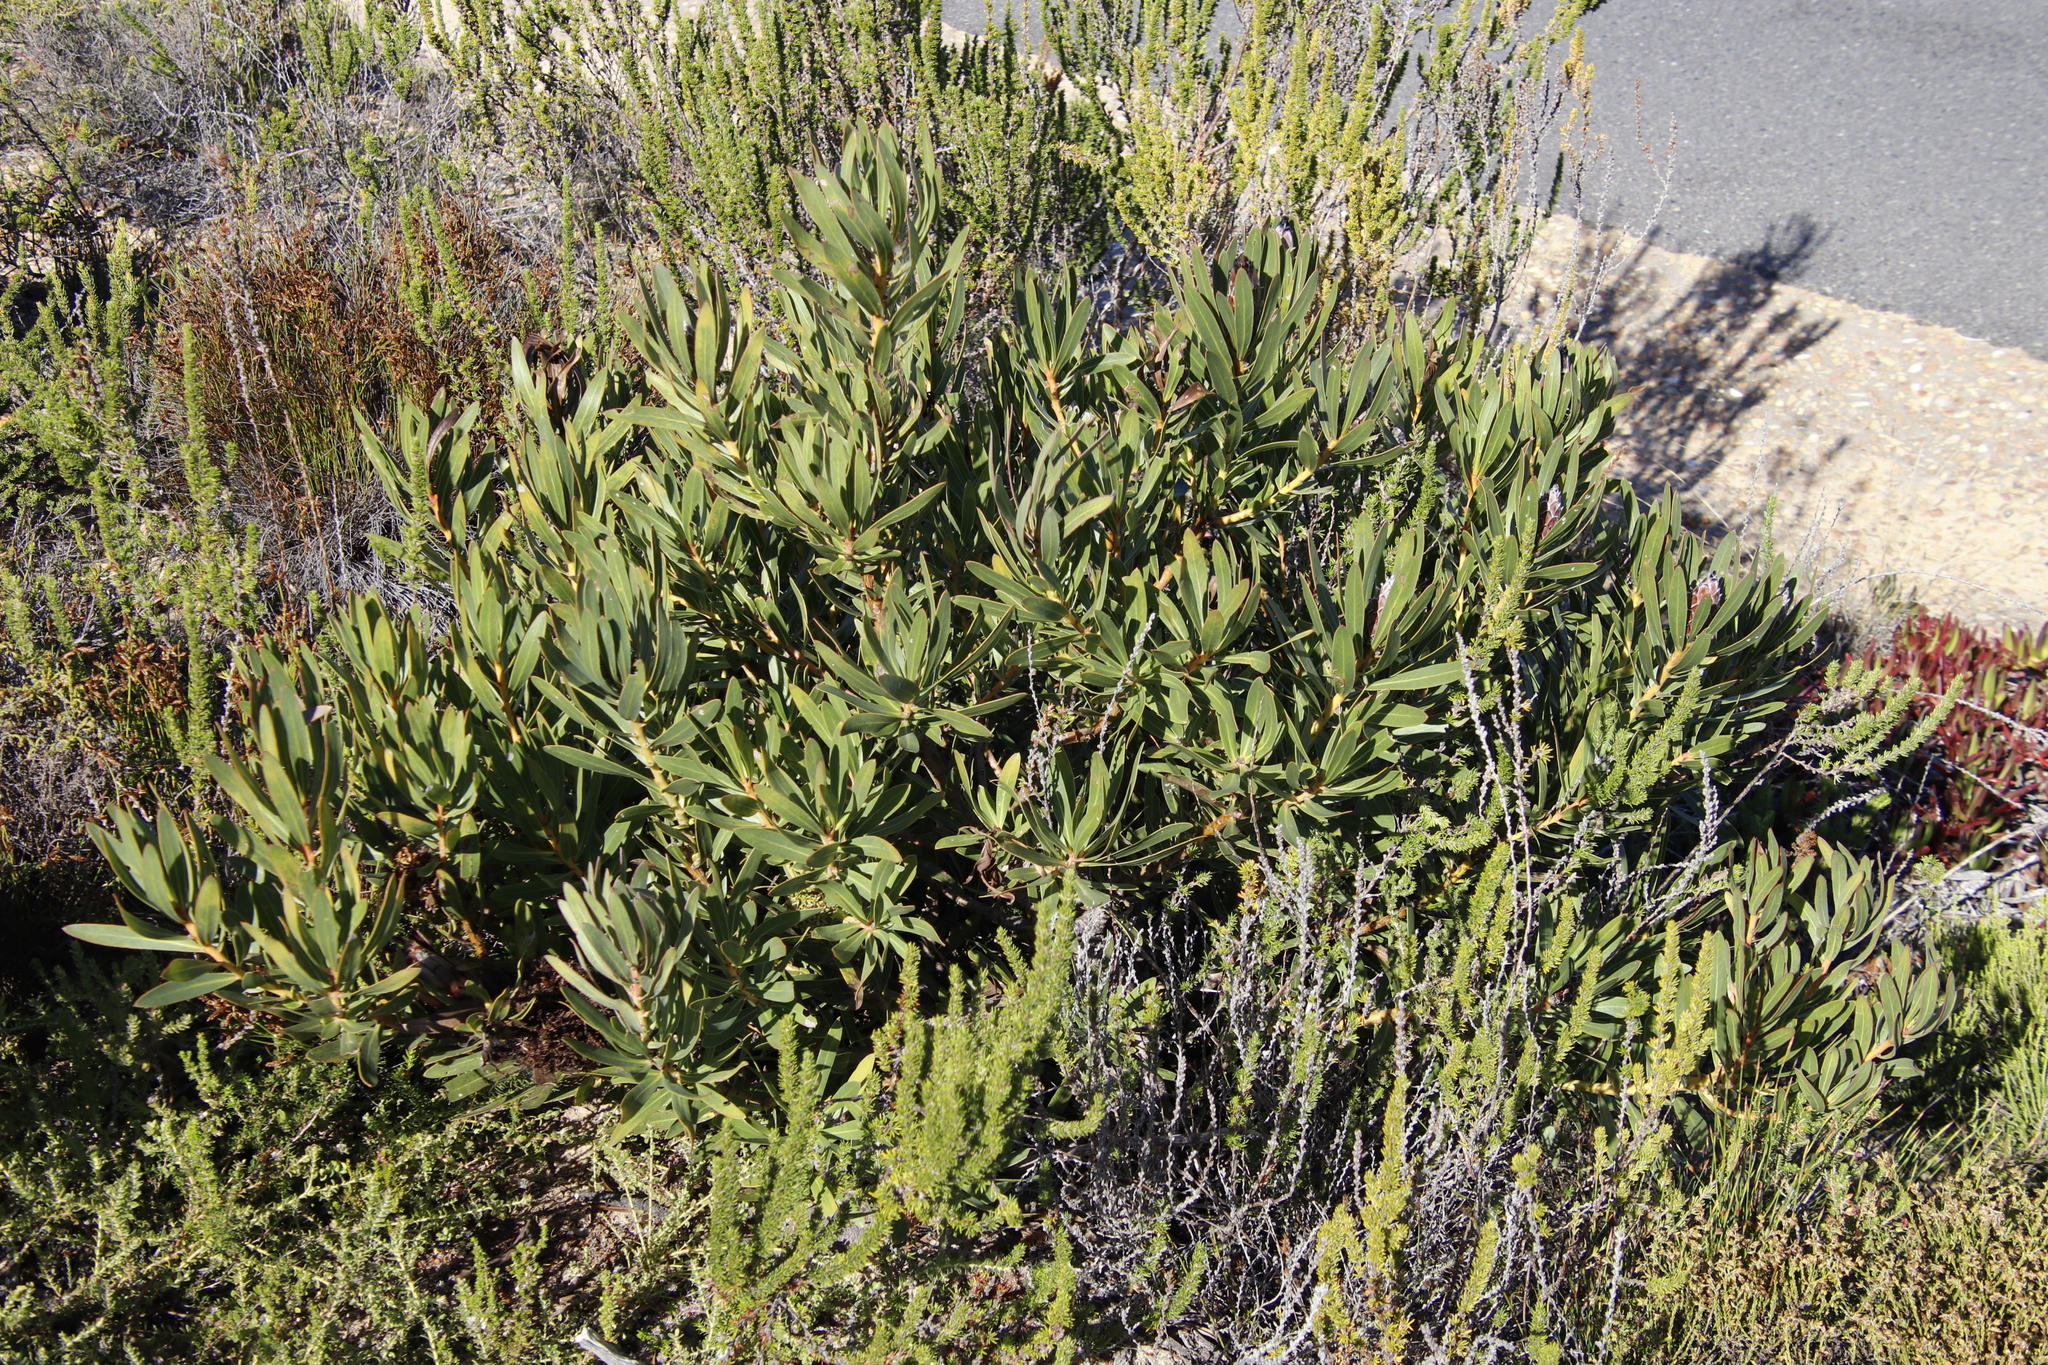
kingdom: Plantae
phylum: Tracheophyta
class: Magnoliopsida
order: Proteales
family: Proteaceae
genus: Protea
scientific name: Protea lepidocarpodendron
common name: Black-bearded protea
